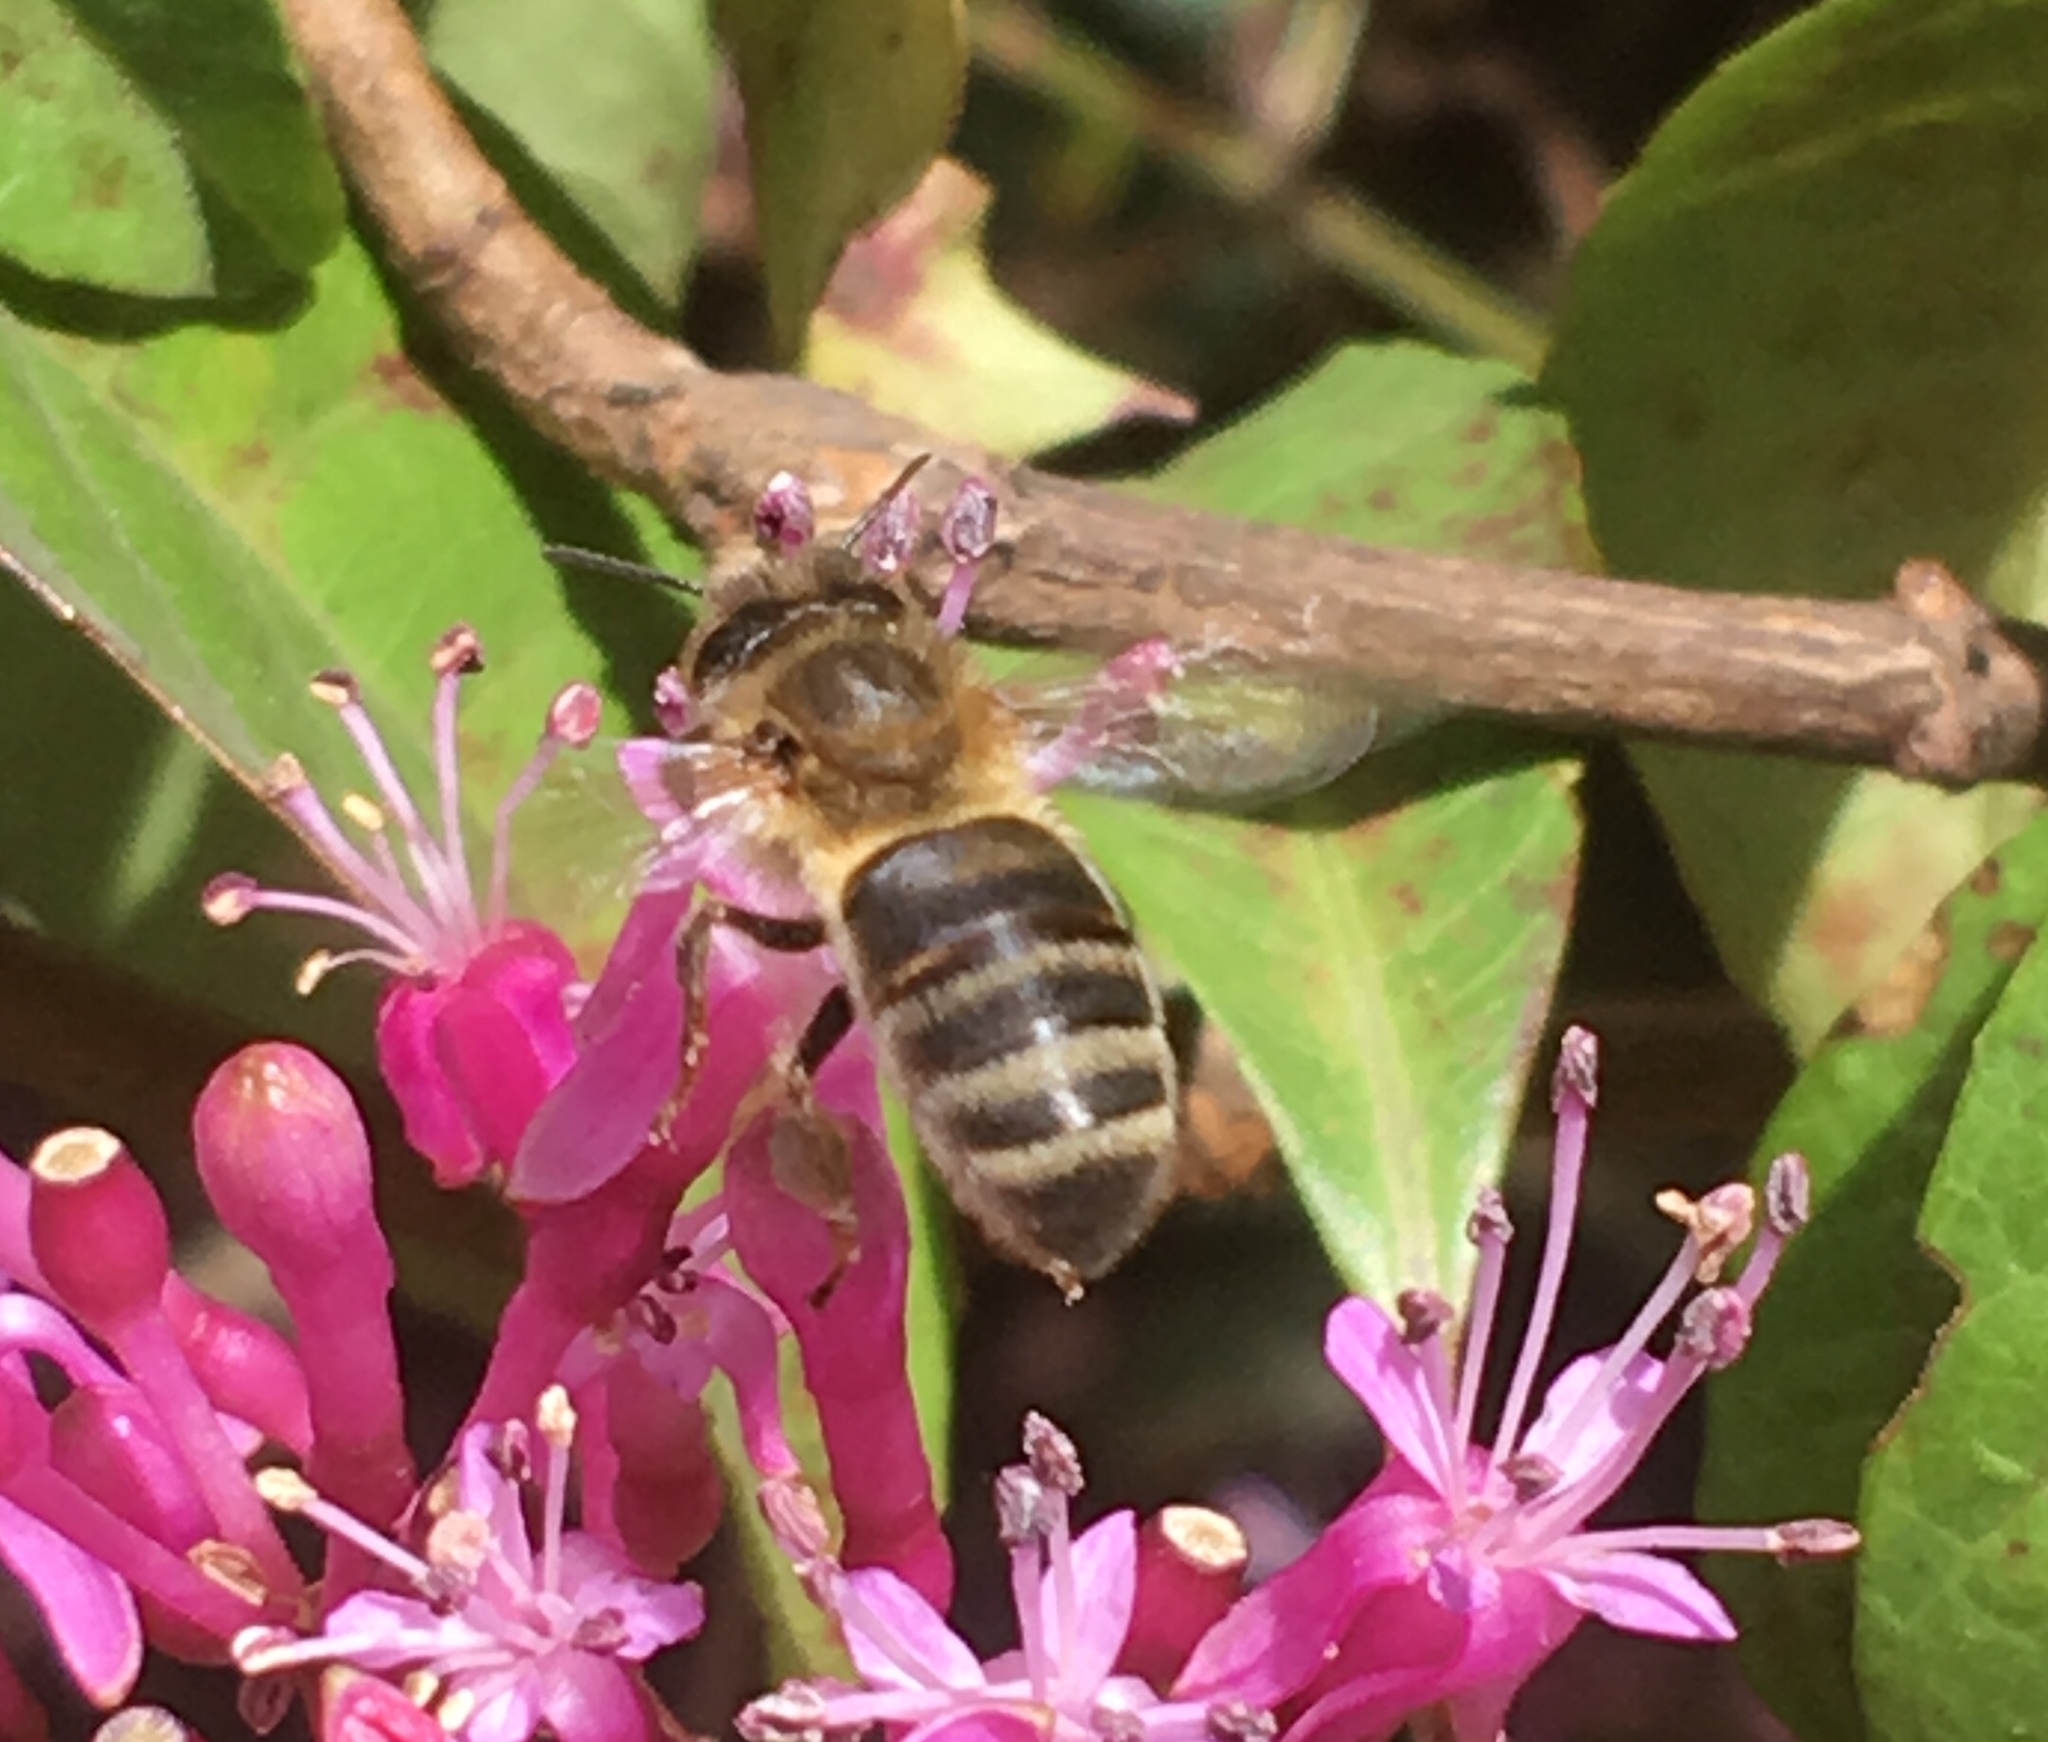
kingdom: Animalia
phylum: Arthropoda
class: Insecta
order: Hymenoptera
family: Apidae
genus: Apis
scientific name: Apis mellifera
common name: Honey bee
